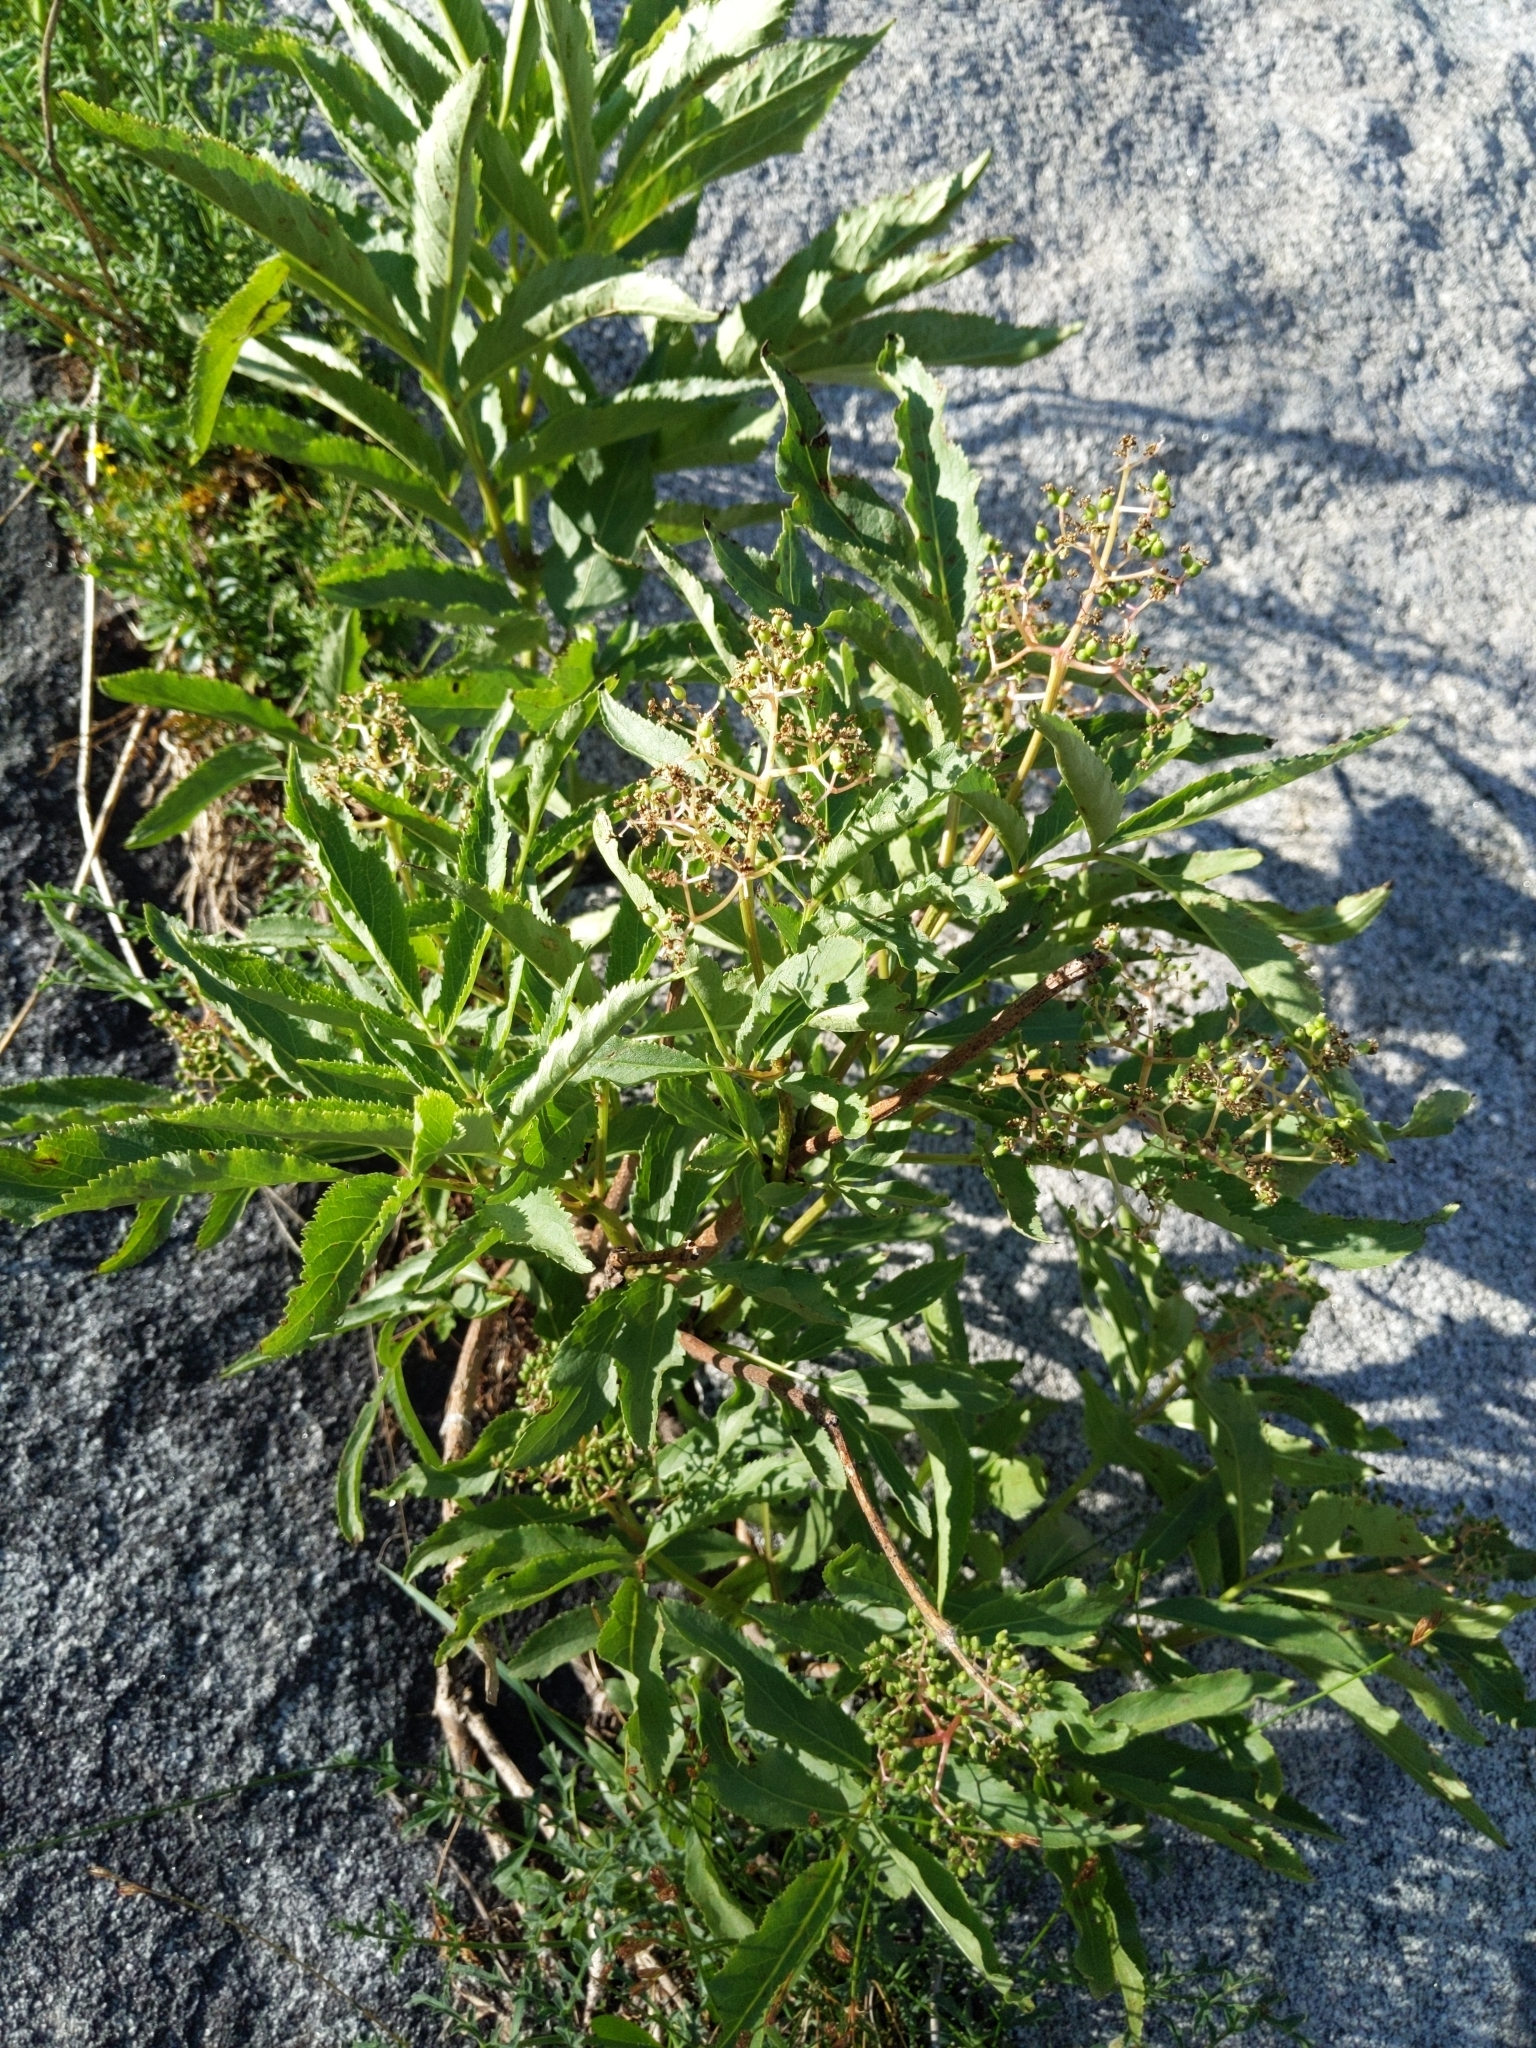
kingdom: Plantae
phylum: Tracheophyta
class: Magnoliopsida
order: Dipsacales
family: Viburnaceae
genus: Sambucus
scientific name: Sambucus racemosa
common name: Red-berried elder
